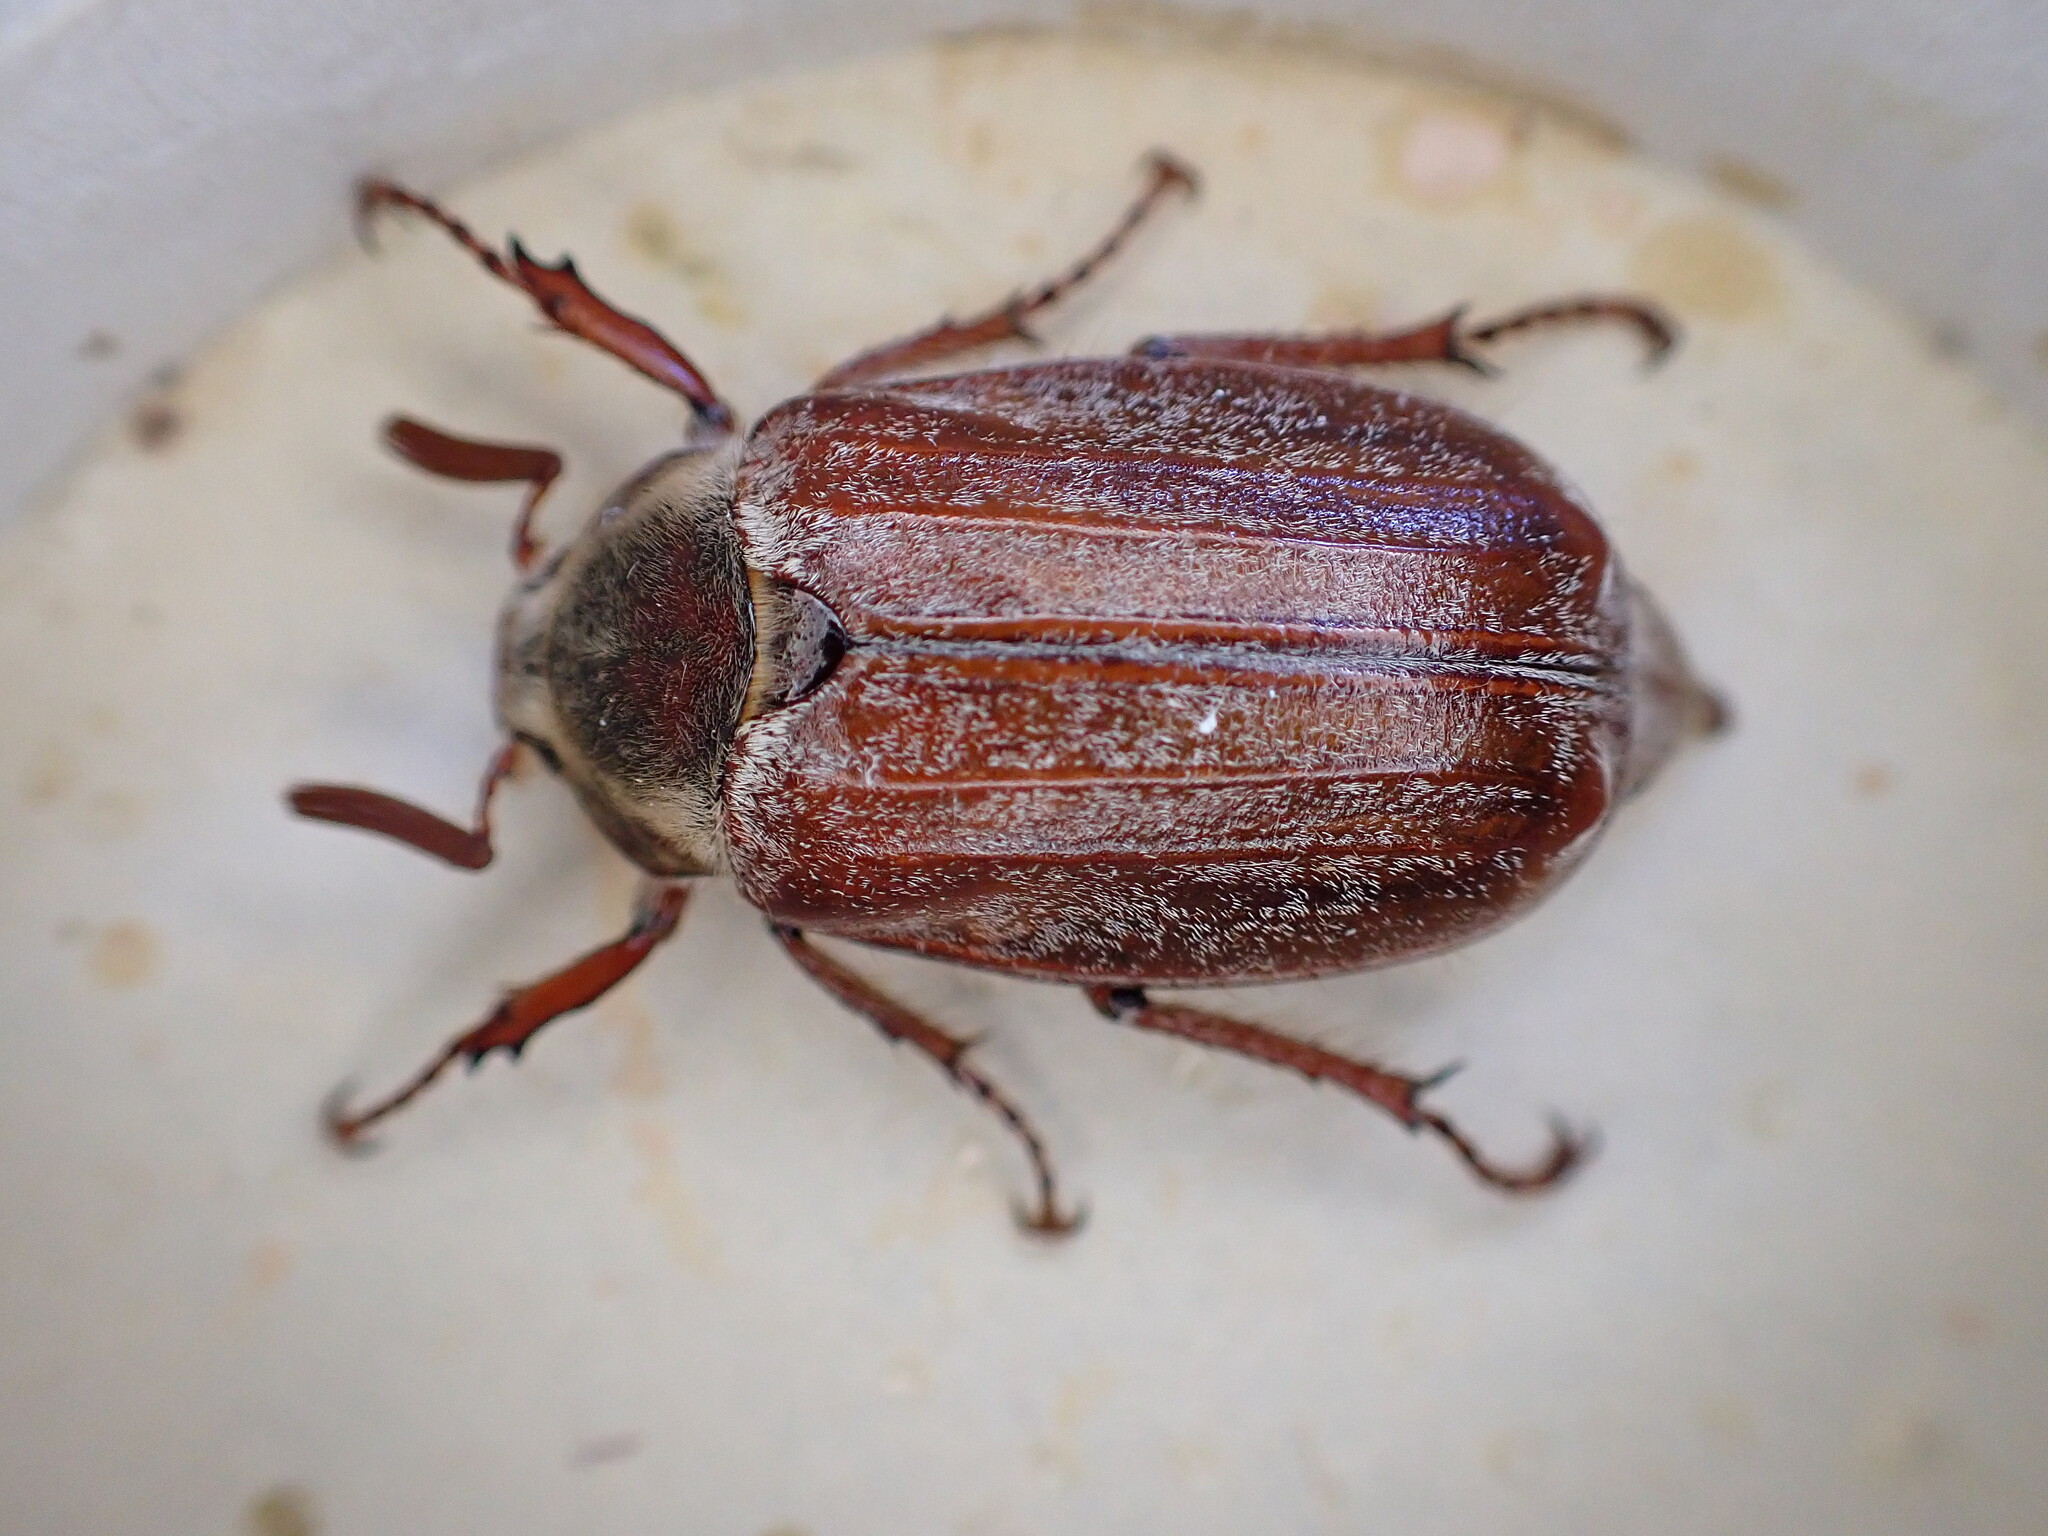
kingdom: Animalia
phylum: Arthropoda
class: Insecta
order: Coleoptera
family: Scarabaeidae
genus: Melolontha
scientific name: Melolontha melolontha
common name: Cockchafer maybeetle
